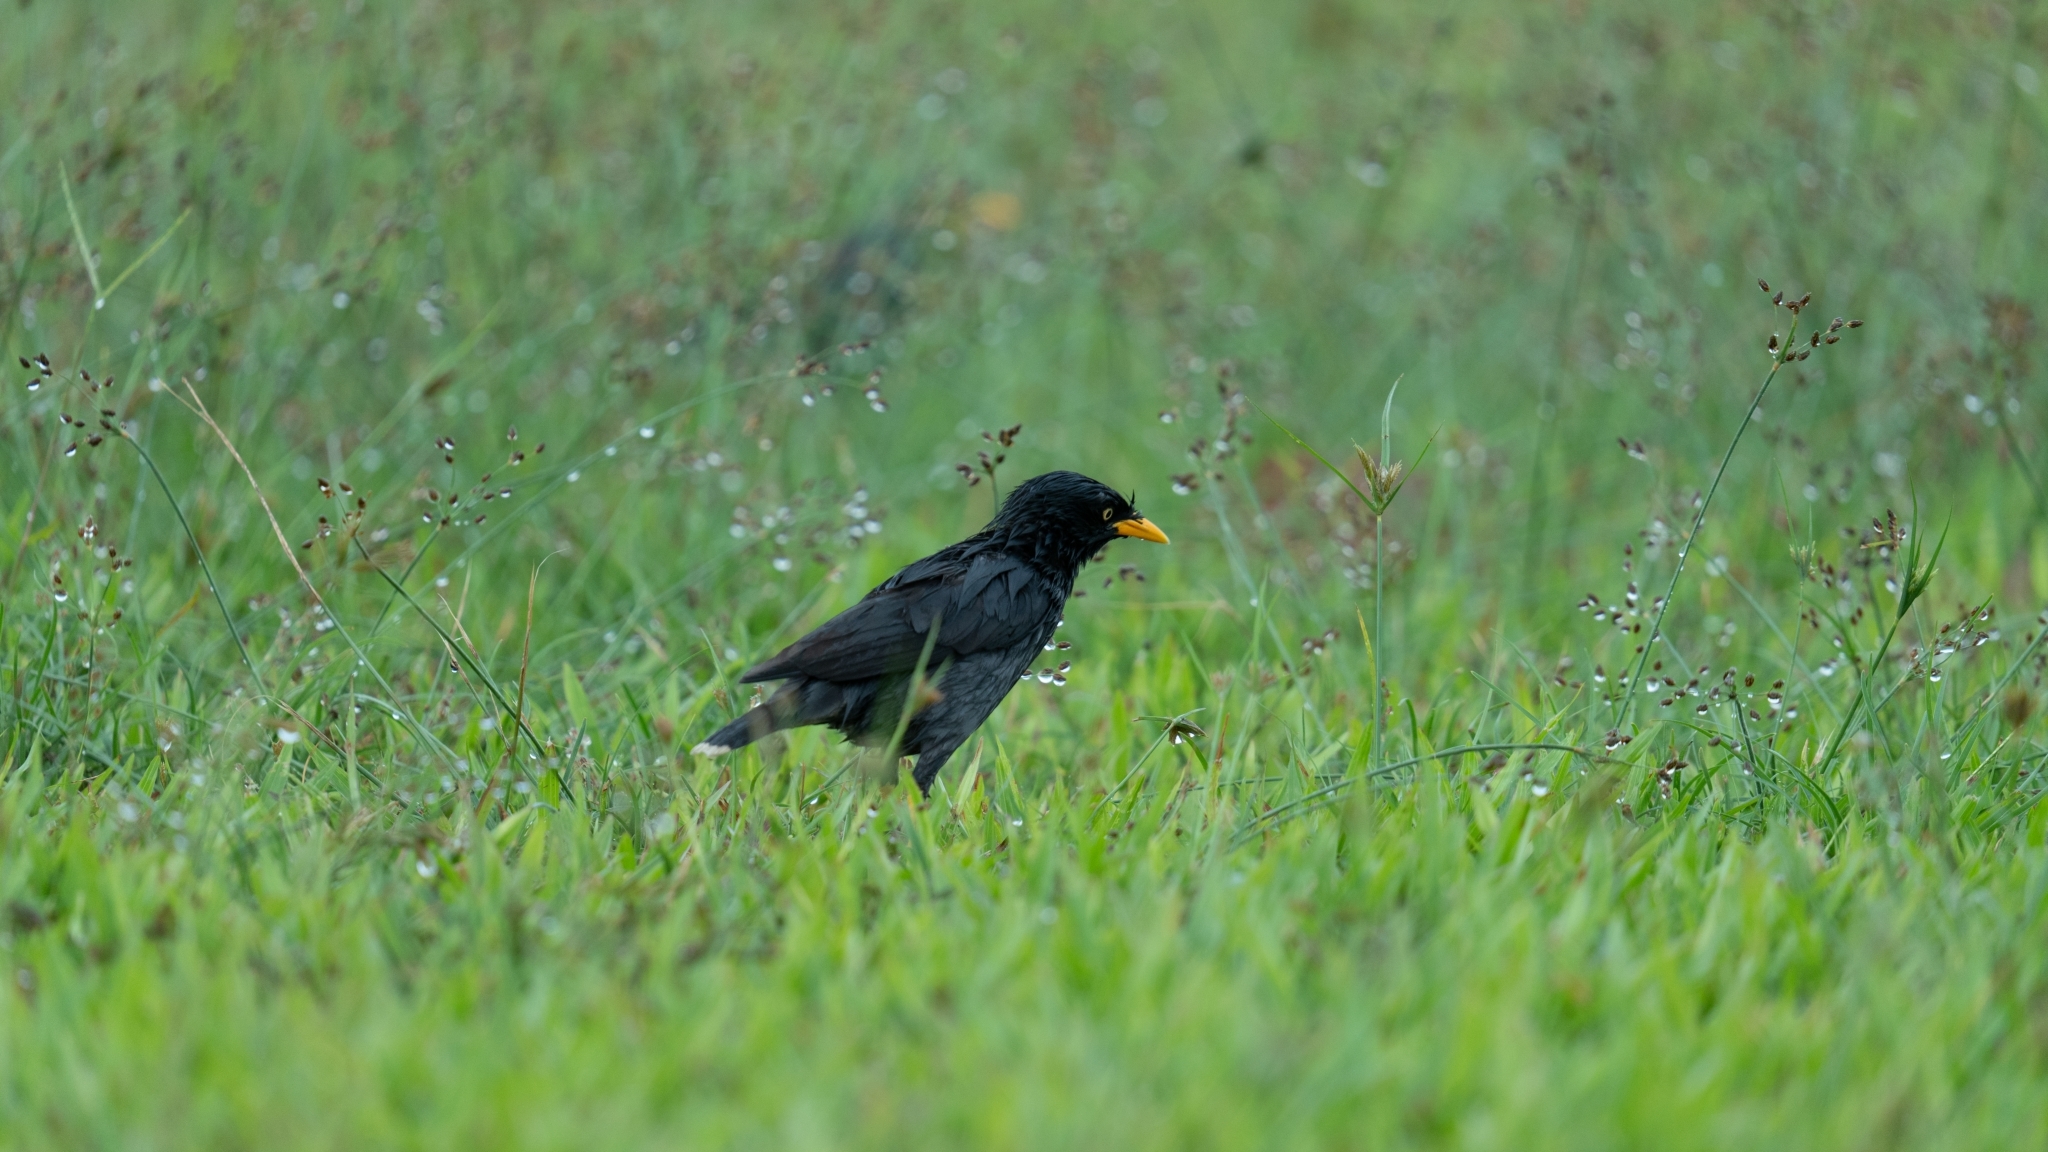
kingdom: Animalia
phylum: Chordata
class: Aves
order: Passeriformes
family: Sturnidae
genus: Acridotheres
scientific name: Acridotheres javanicus
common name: Javan myna
